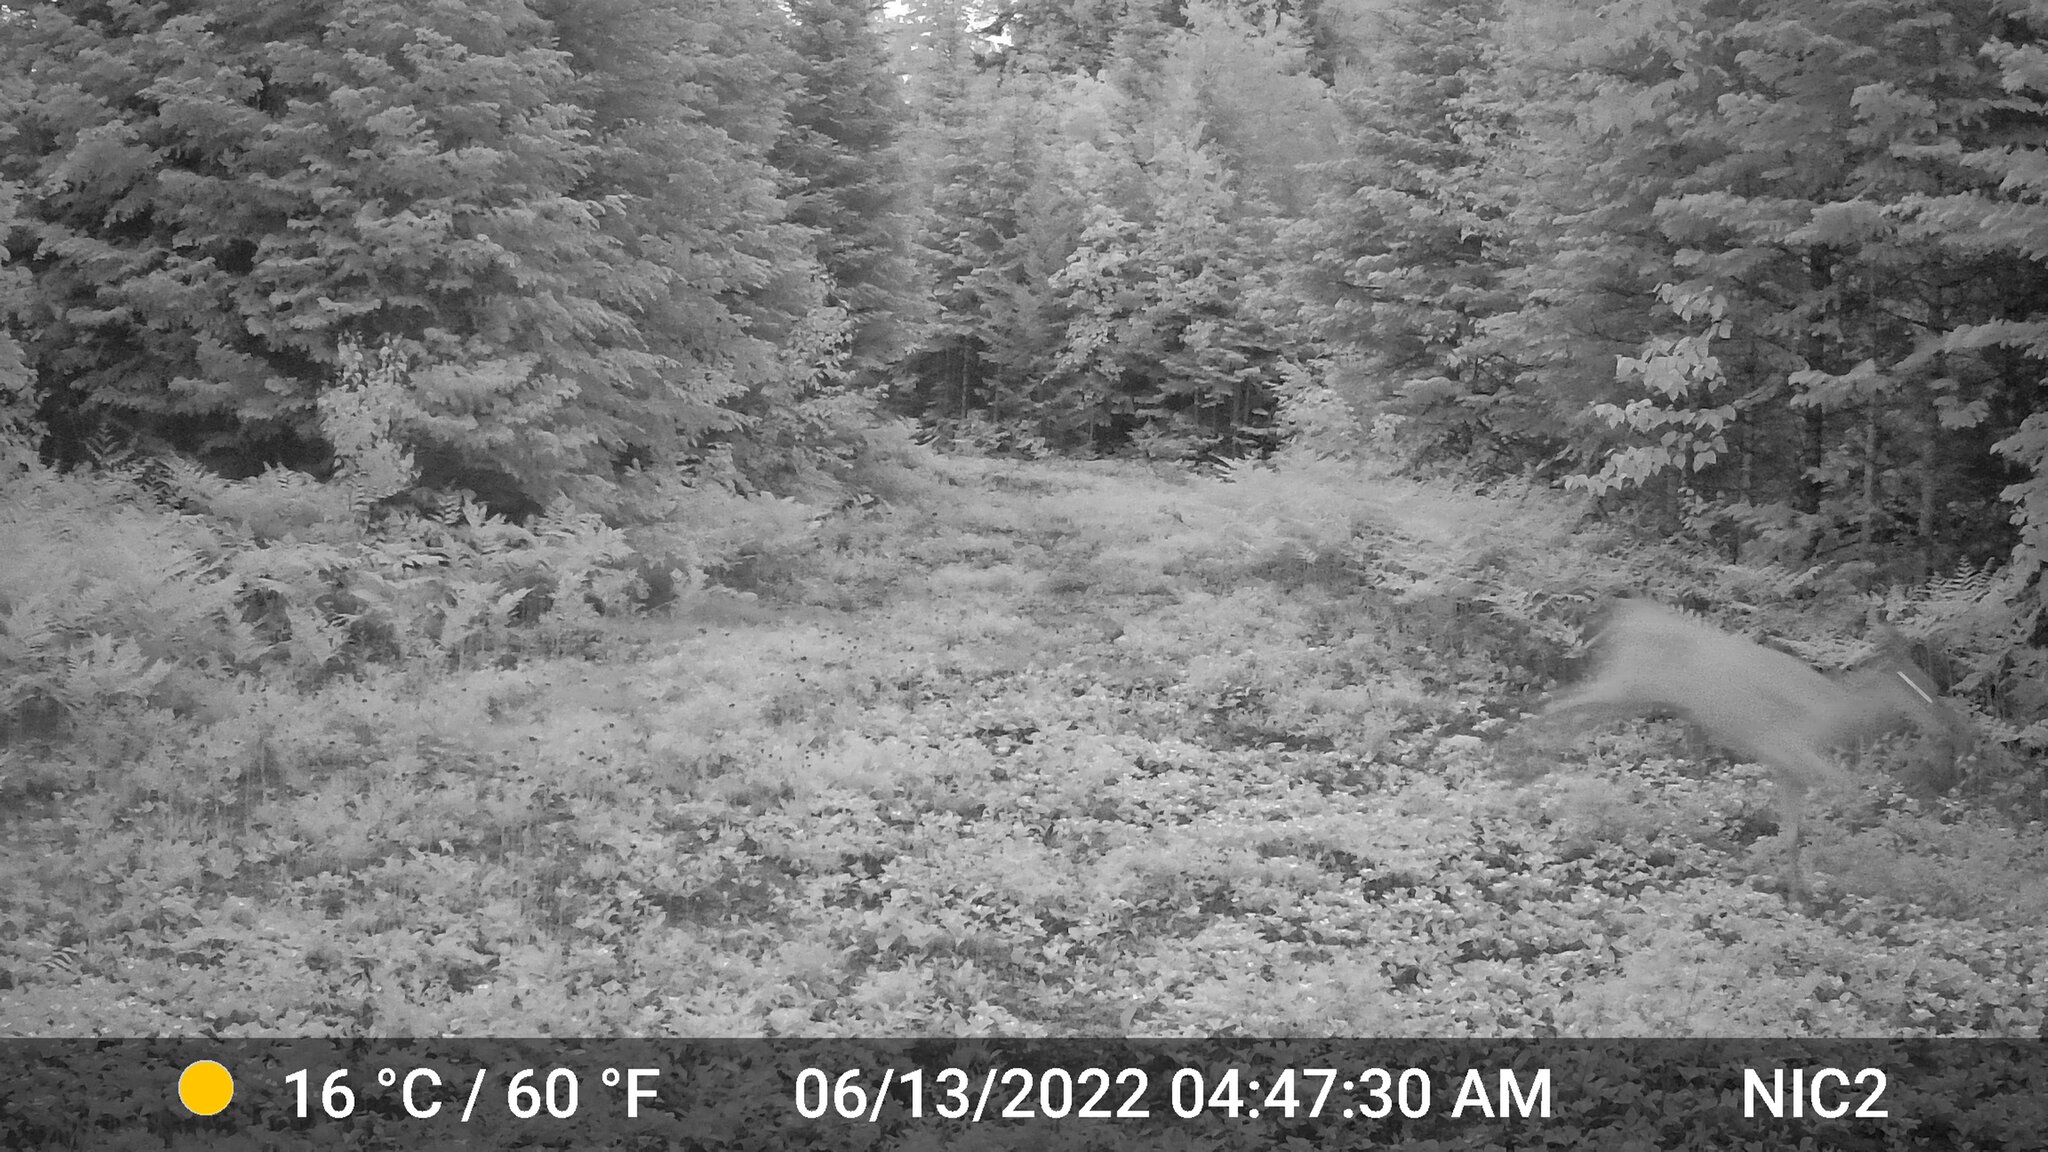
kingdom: Animalia
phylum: Chordata
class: Mammalia
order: Artiodactyla
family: Cervidae
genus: Odocoileus
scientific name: Odocoileus virginianus
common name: White-tailed deer
